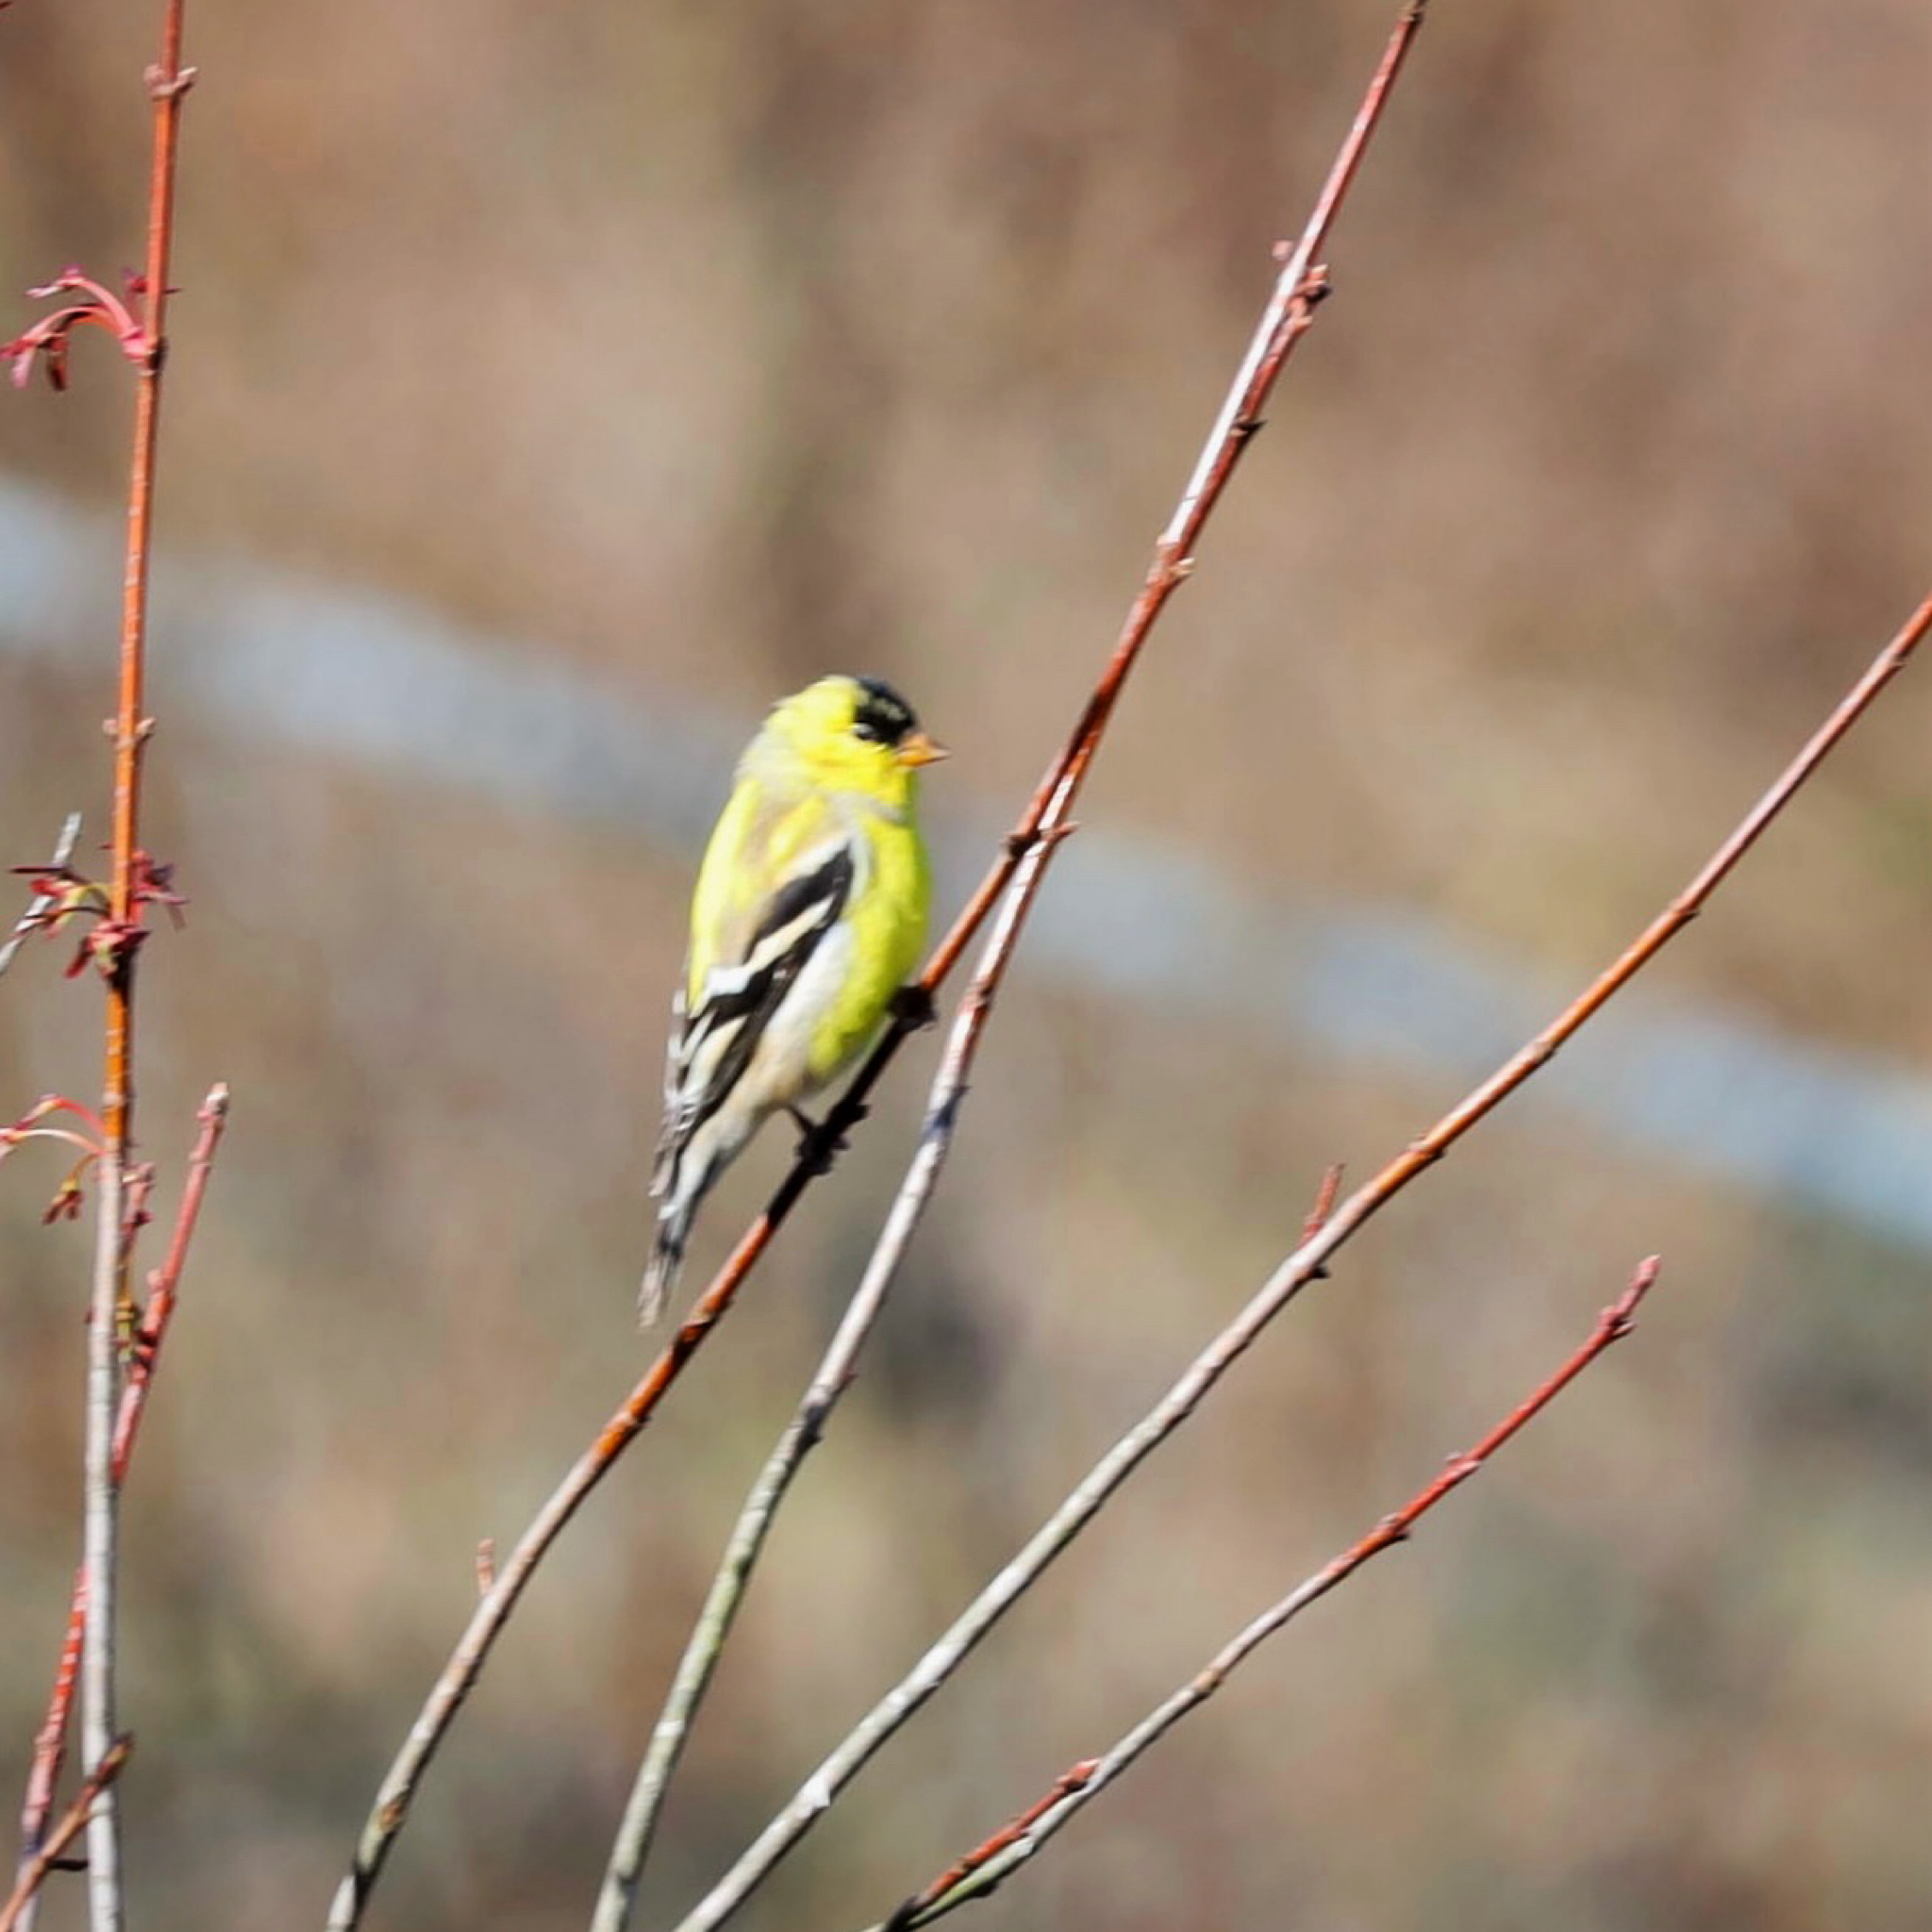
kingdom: Animalia
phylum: Chordata
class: Aves
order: Passeriformes
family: Fringillidae
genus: Spinus
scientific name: Spinus tristis
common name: American goldfinch
